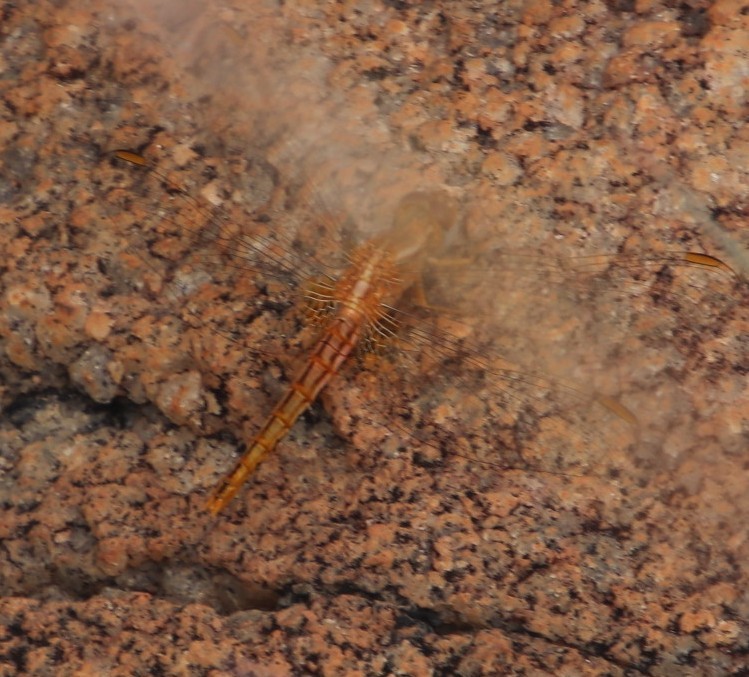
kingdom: Animalia
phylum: Arthropoda
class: Insecta
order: Odonata
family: Libellulidae
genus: Crocothemis
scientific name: Crocothemis sanguinolenta
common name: Little scarlet
